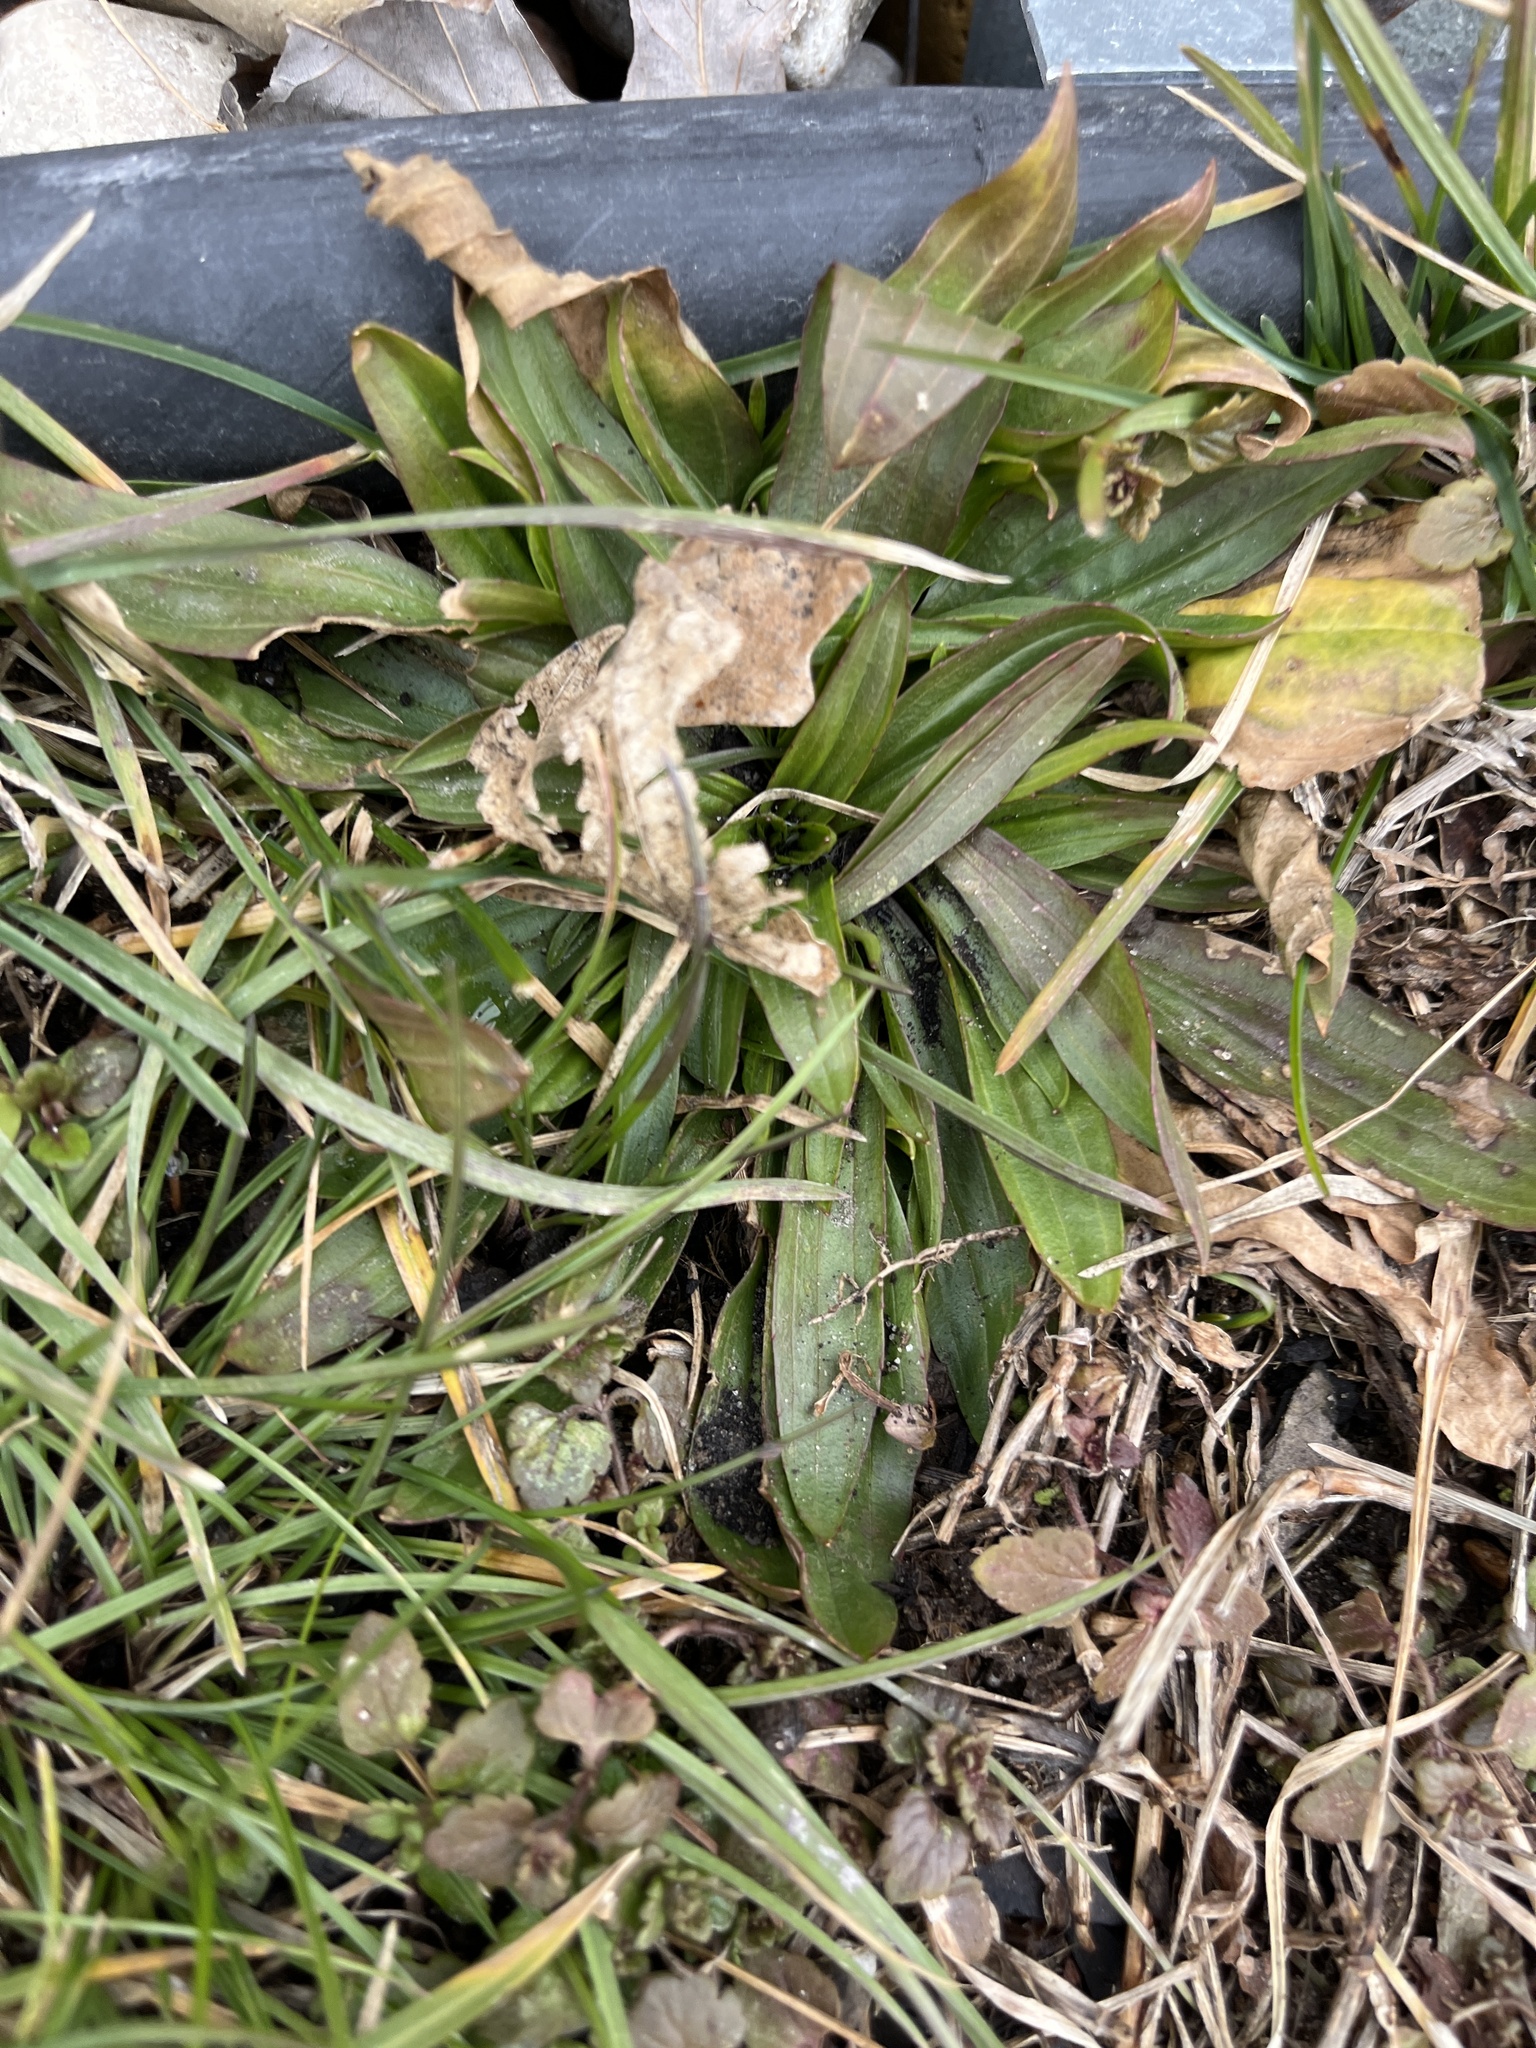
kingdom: Plantae
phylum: Tracheophyta
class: Magnoliopsida
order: Lamiales
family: Plantaginaceae
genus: Plantago
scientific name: Plantago lanceolata
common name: Ribwort plantain
